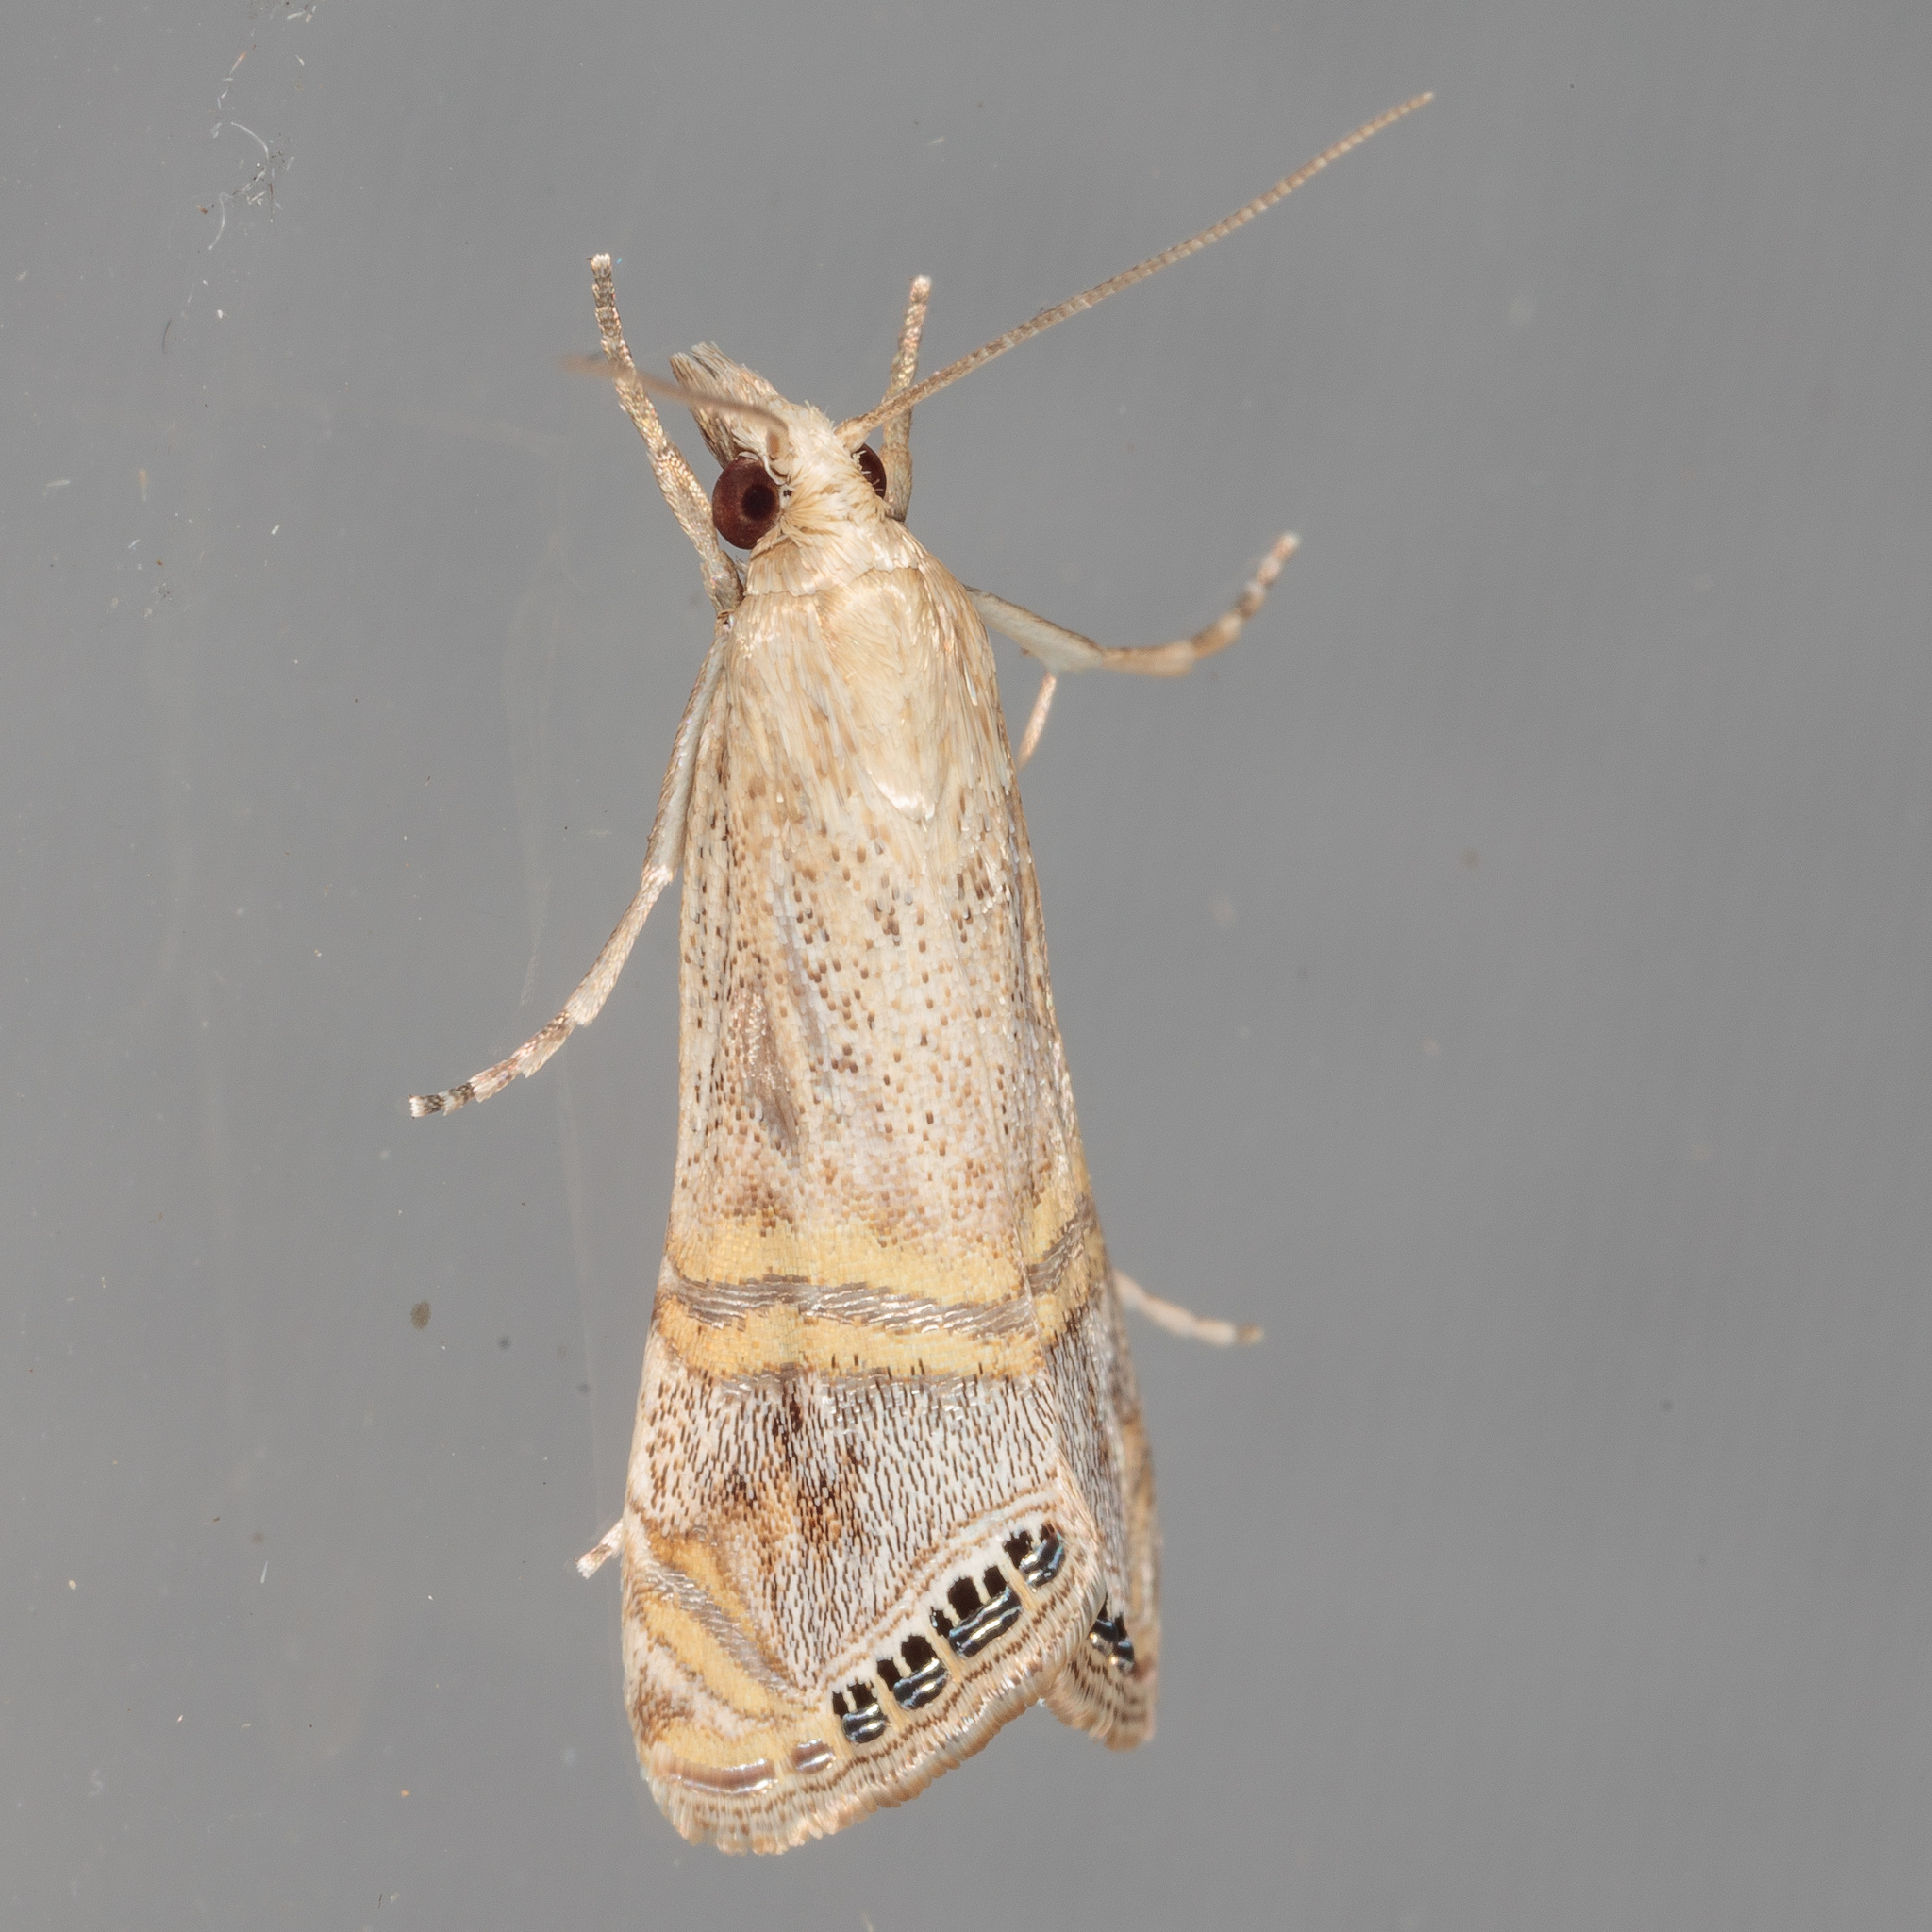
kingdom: Animalia
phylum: Arthropoda
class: Insecta
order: Lepidoptera
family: Crambidae
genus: Euchromius
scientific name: Euchromius ocellea
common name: Necklace veneer moth
